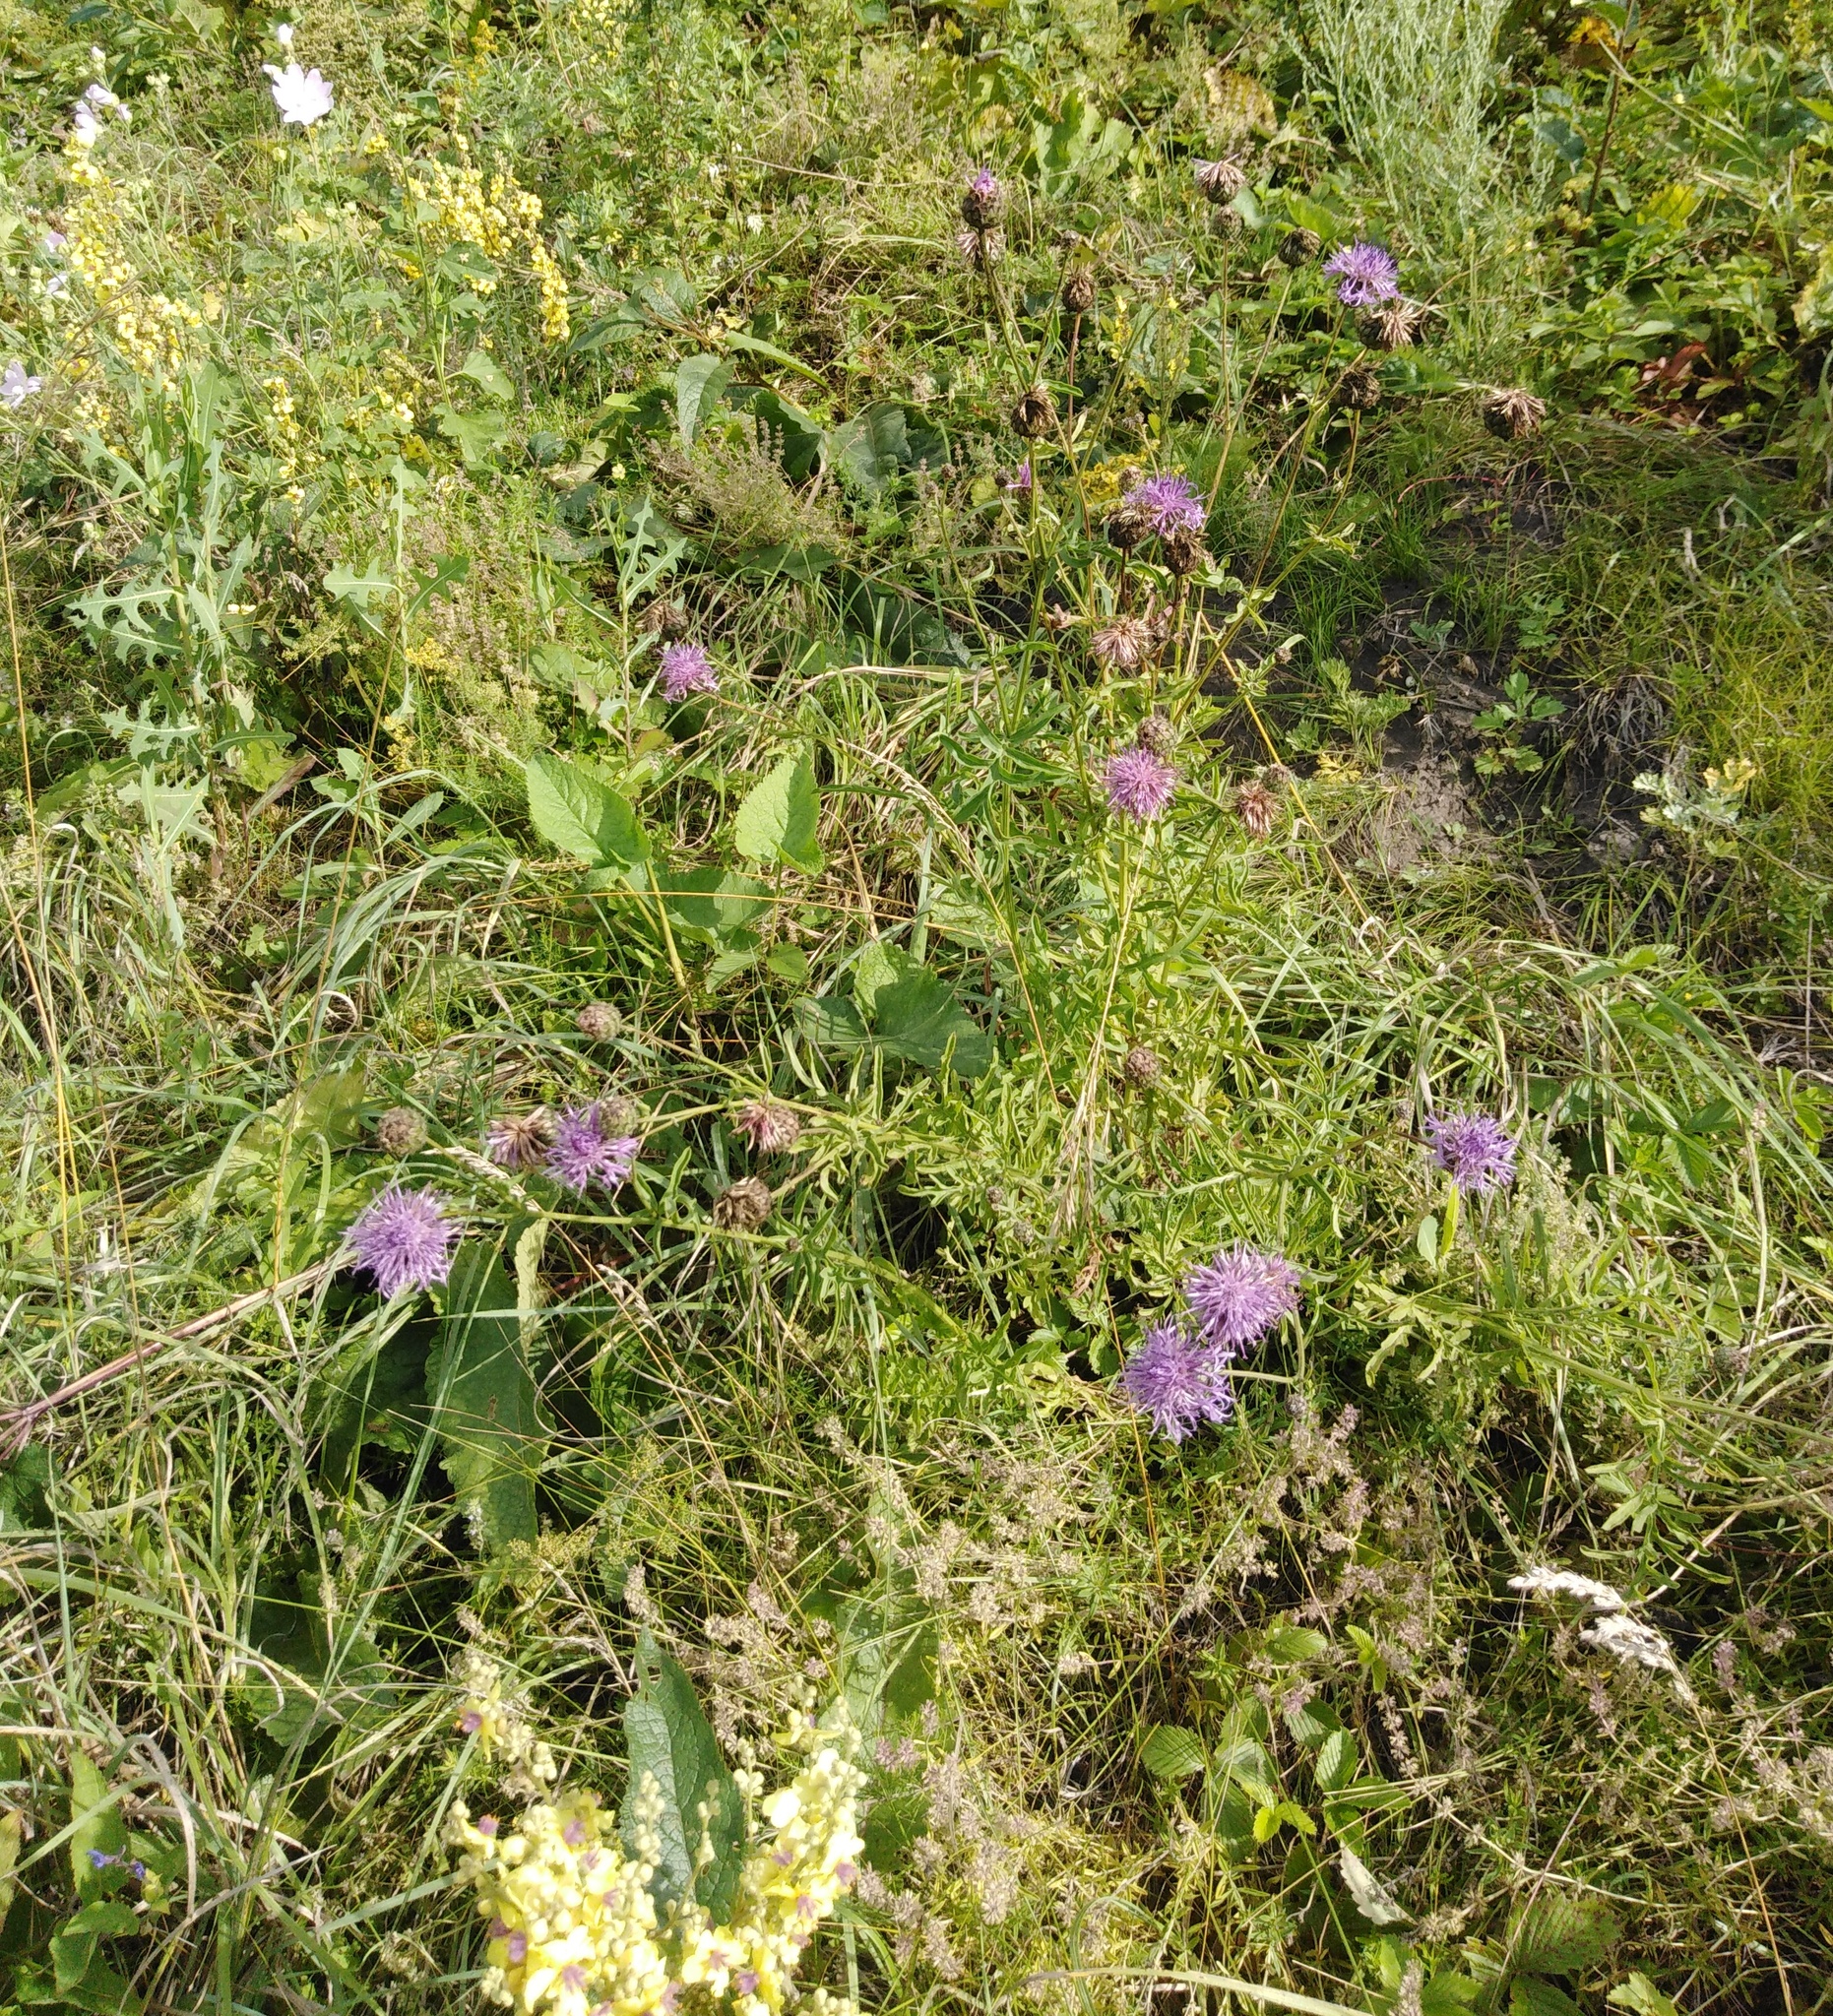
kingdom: Plantae
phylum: Tracheophyta
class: Magnoliopsida
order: Asterales
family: Asteraceae
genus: Centaurea
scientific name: Centaurea scabiosa
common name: Greater knapweed
